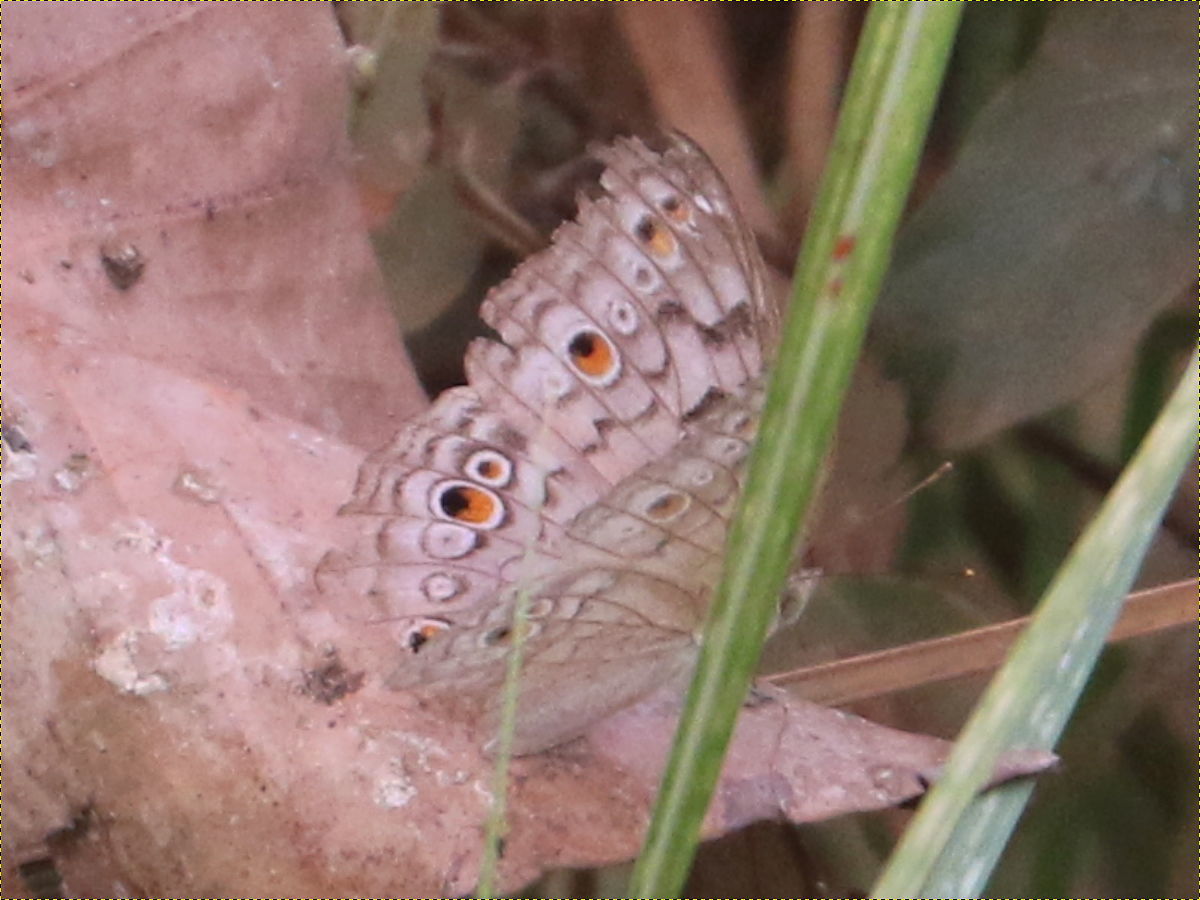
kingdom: Animalia
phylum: Arthropoda
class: Insecta
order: Lepidoptera
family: Nymphalidae
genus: Junonia
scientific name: Junonia atlites
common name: Grey pansy
